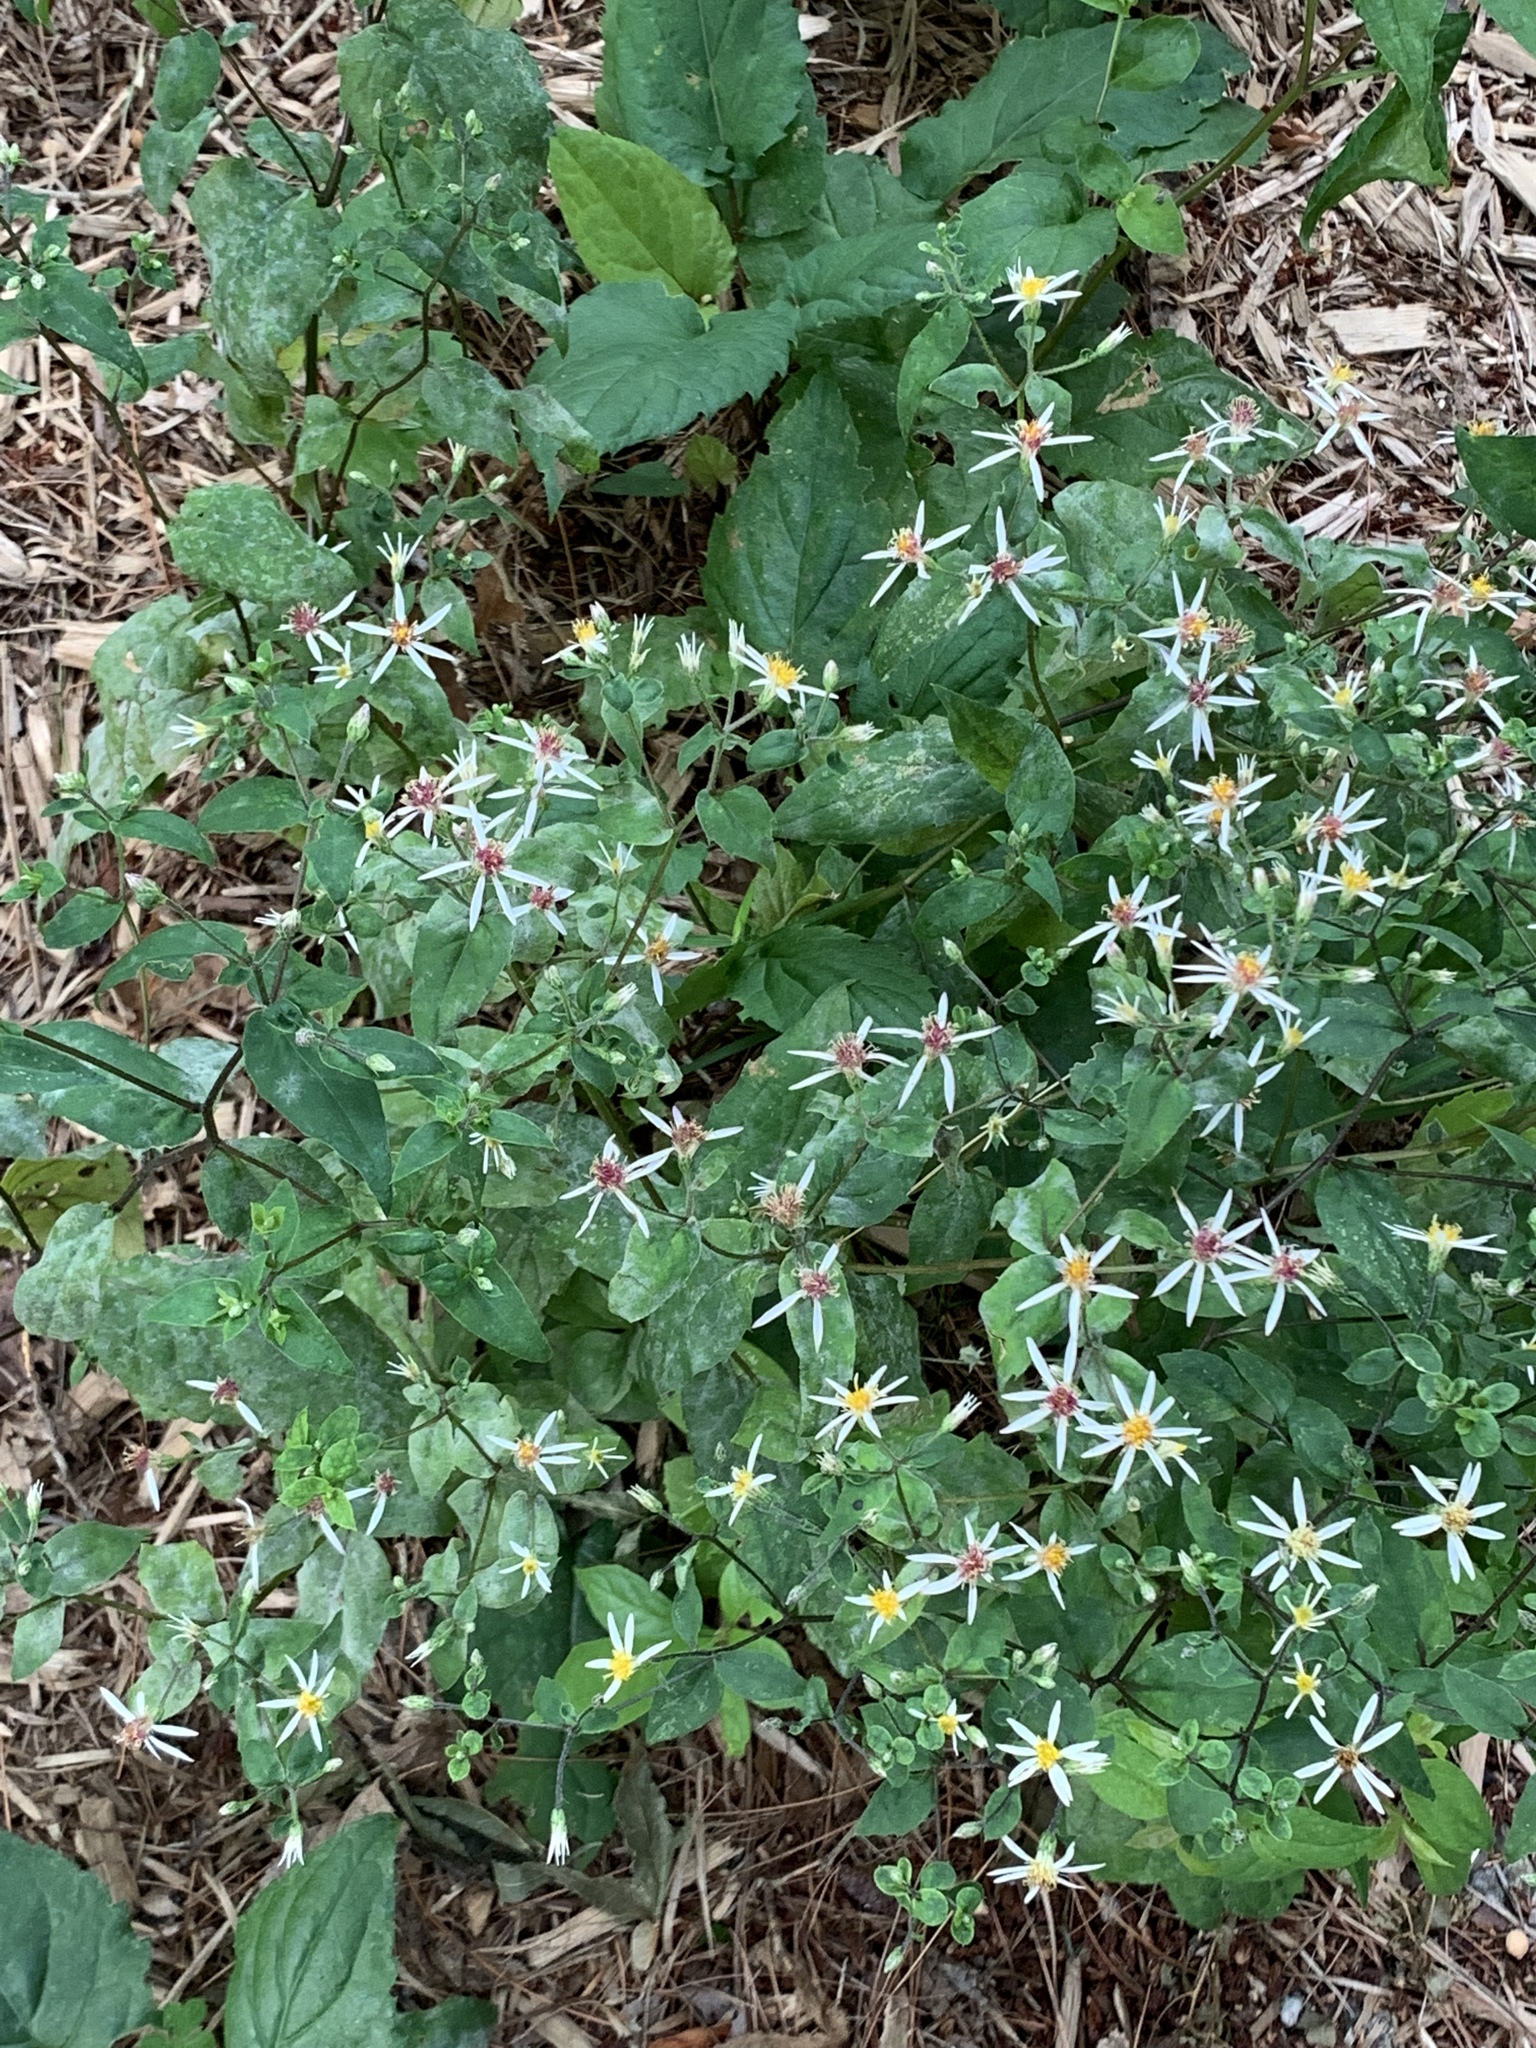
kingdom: Plantae
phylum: Tracheophyta
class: Magnoliopsida
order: Asterales
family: Asteraceae
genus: Eurybia
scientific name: Eurybia divaricata
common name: White wood aster
